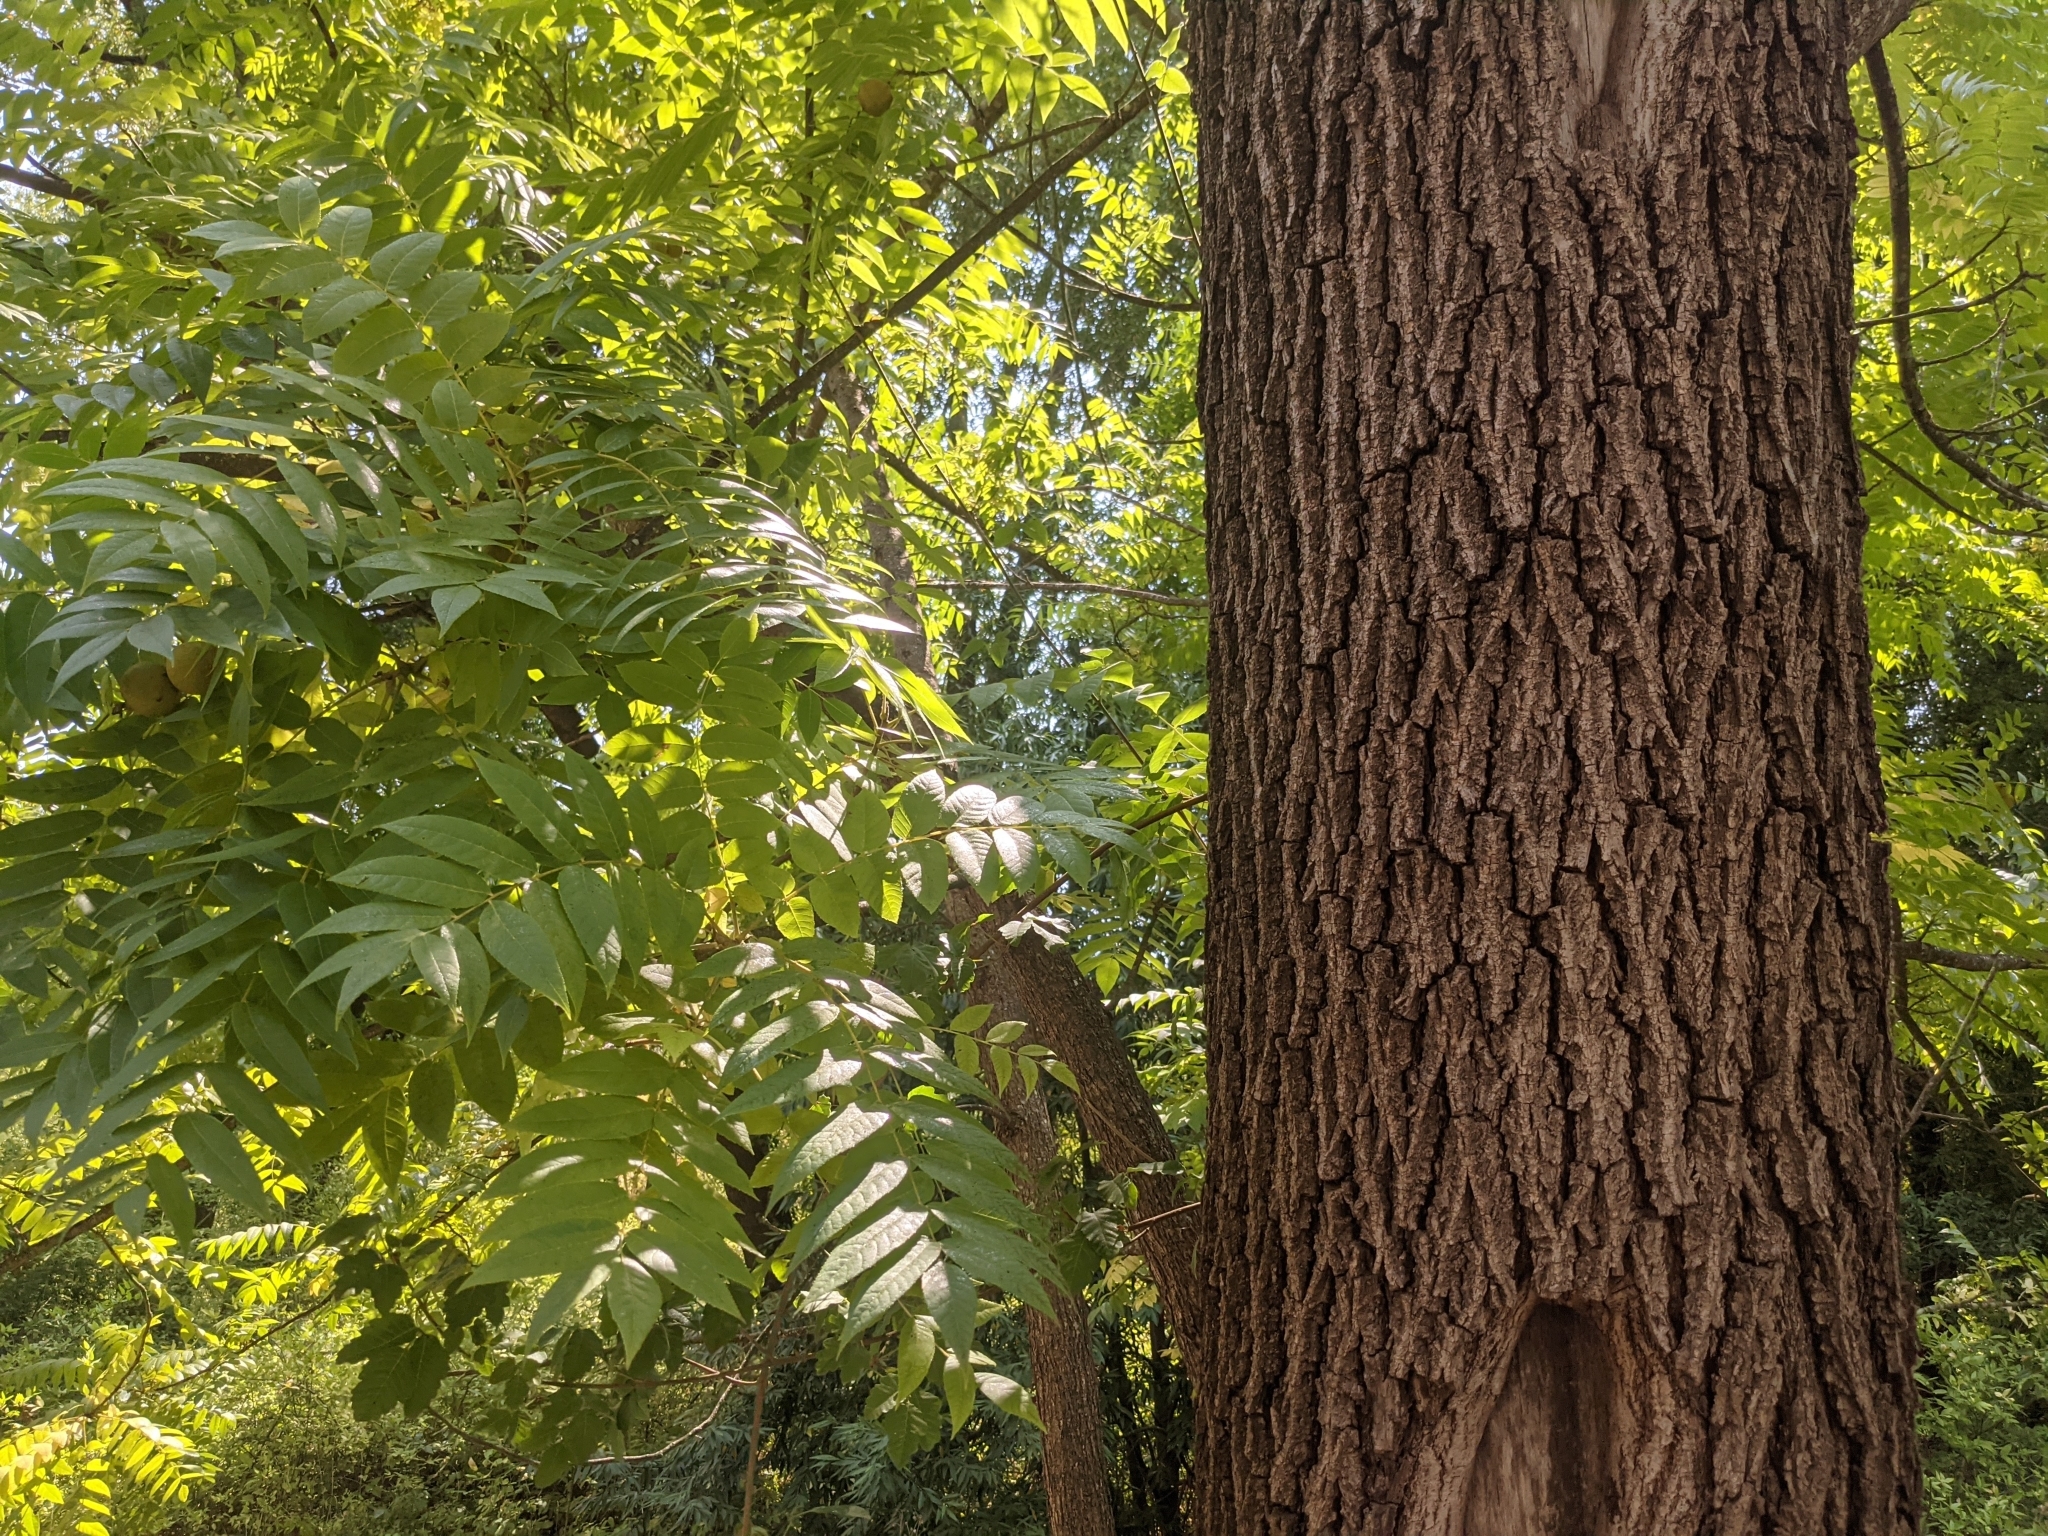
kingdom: Plantae
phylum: Tracheophyta
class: Magnoliopsida
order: Fagales
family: Juglandaceae
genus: Juglans
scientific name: Juglans hindsii
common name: Northern california black walnut
